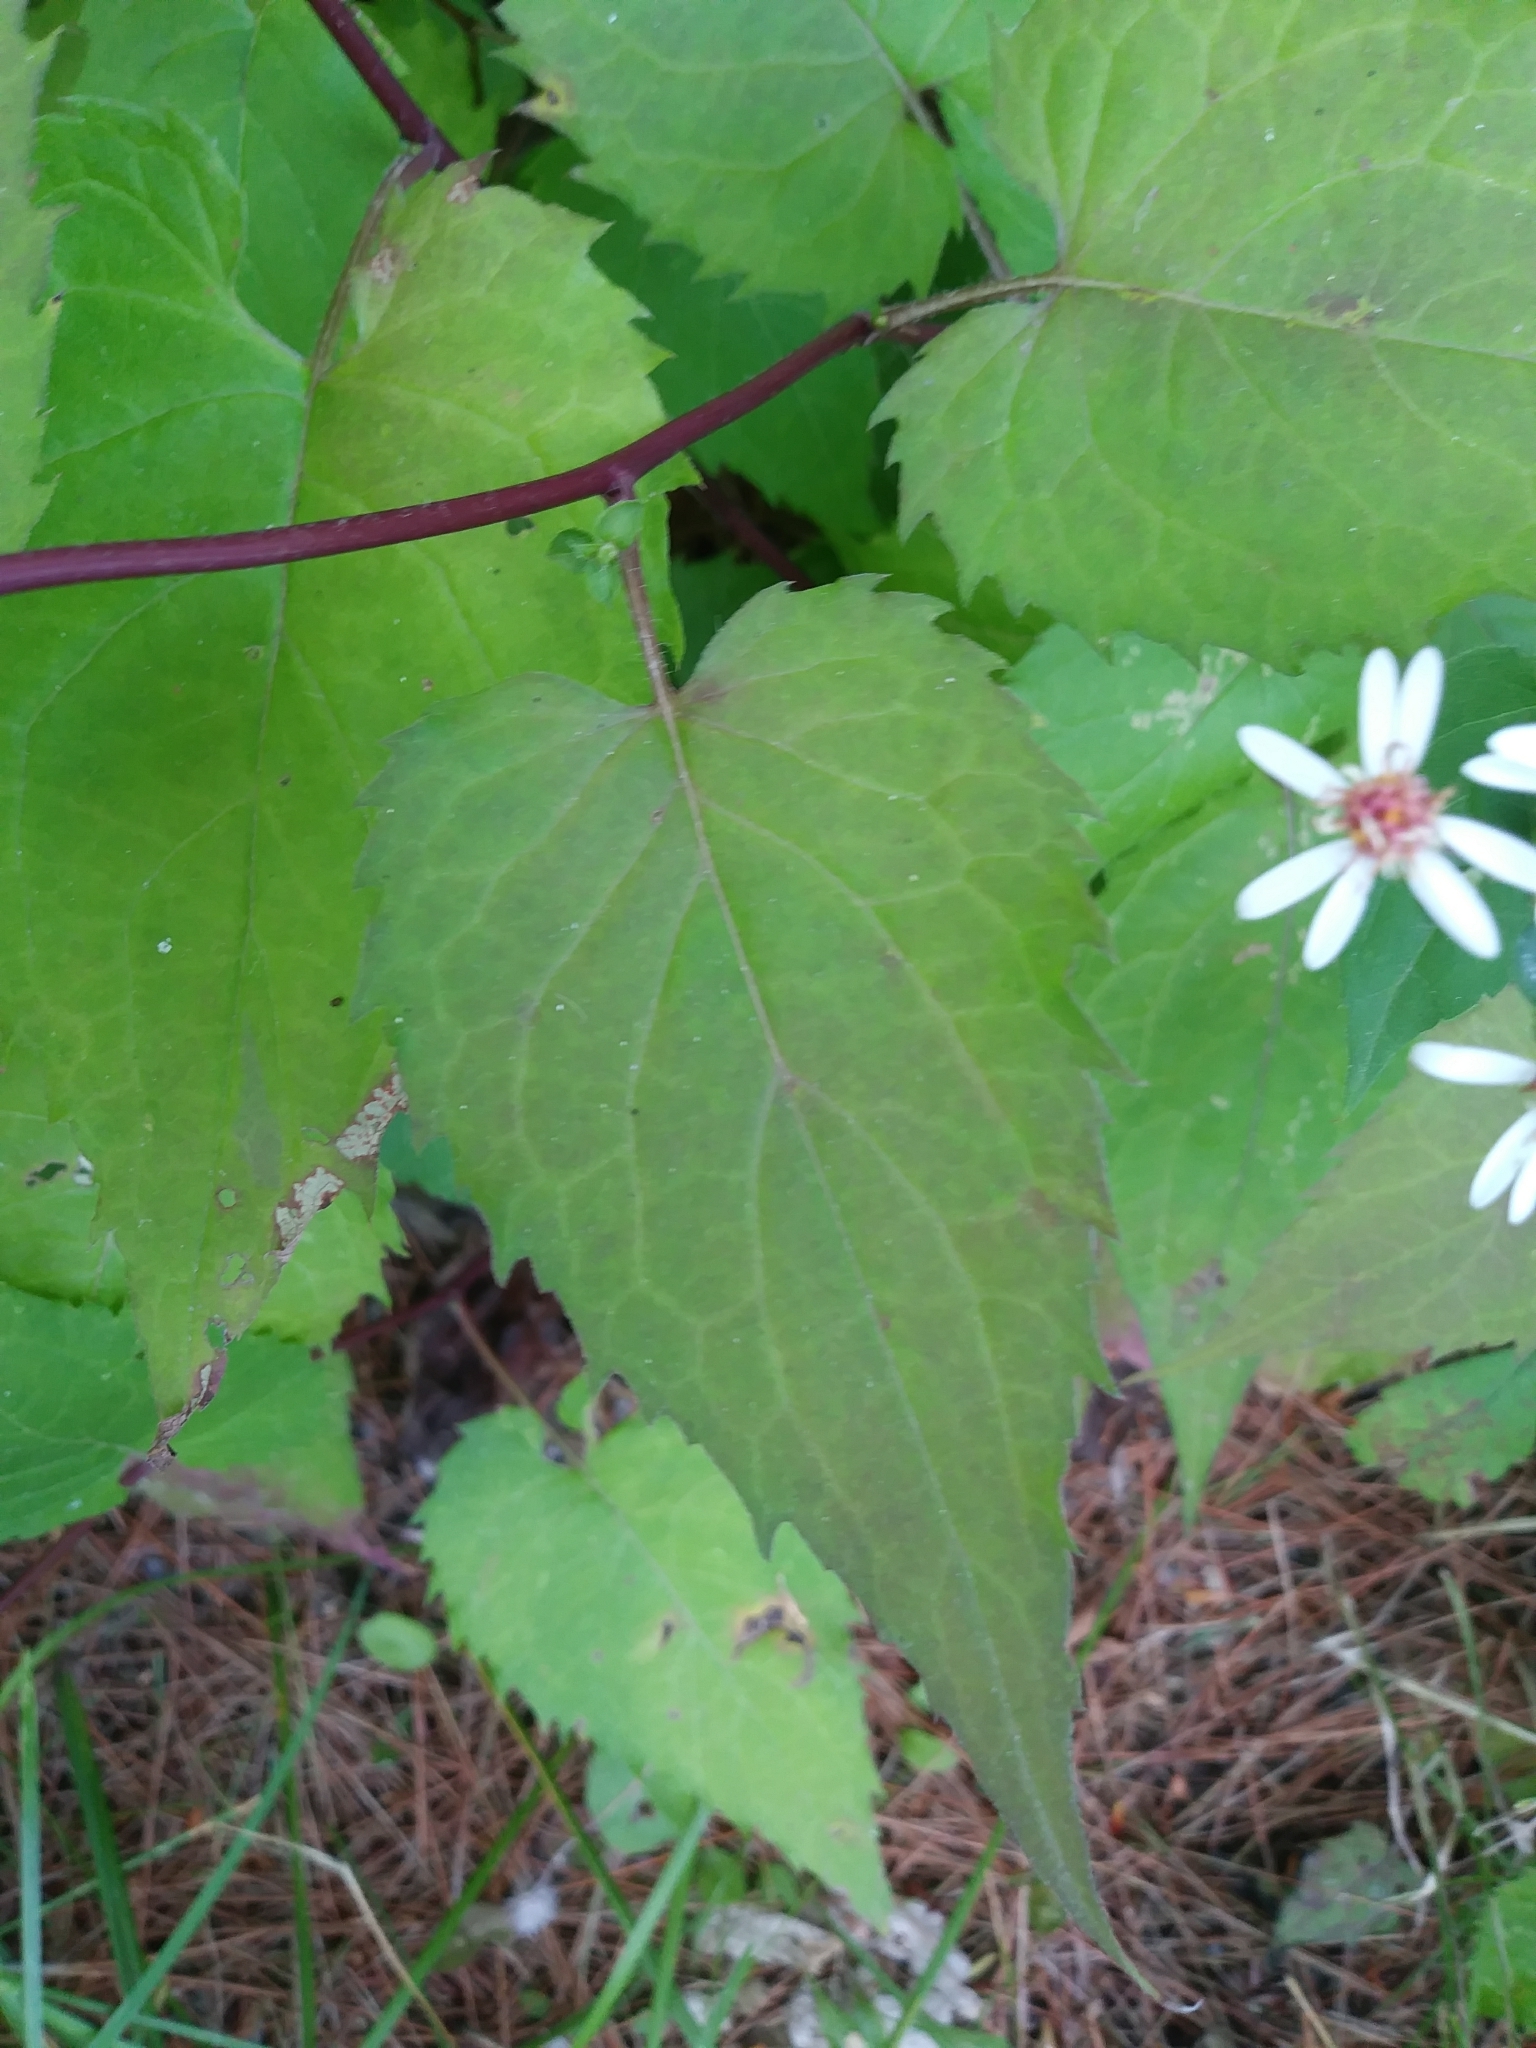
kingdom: Plantae
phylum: Tracheophyta
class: Magnoliopsida
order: Asterales
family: Asteraceae
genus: Eurybia
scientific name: Eurybia divaricata
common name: White wood aster
